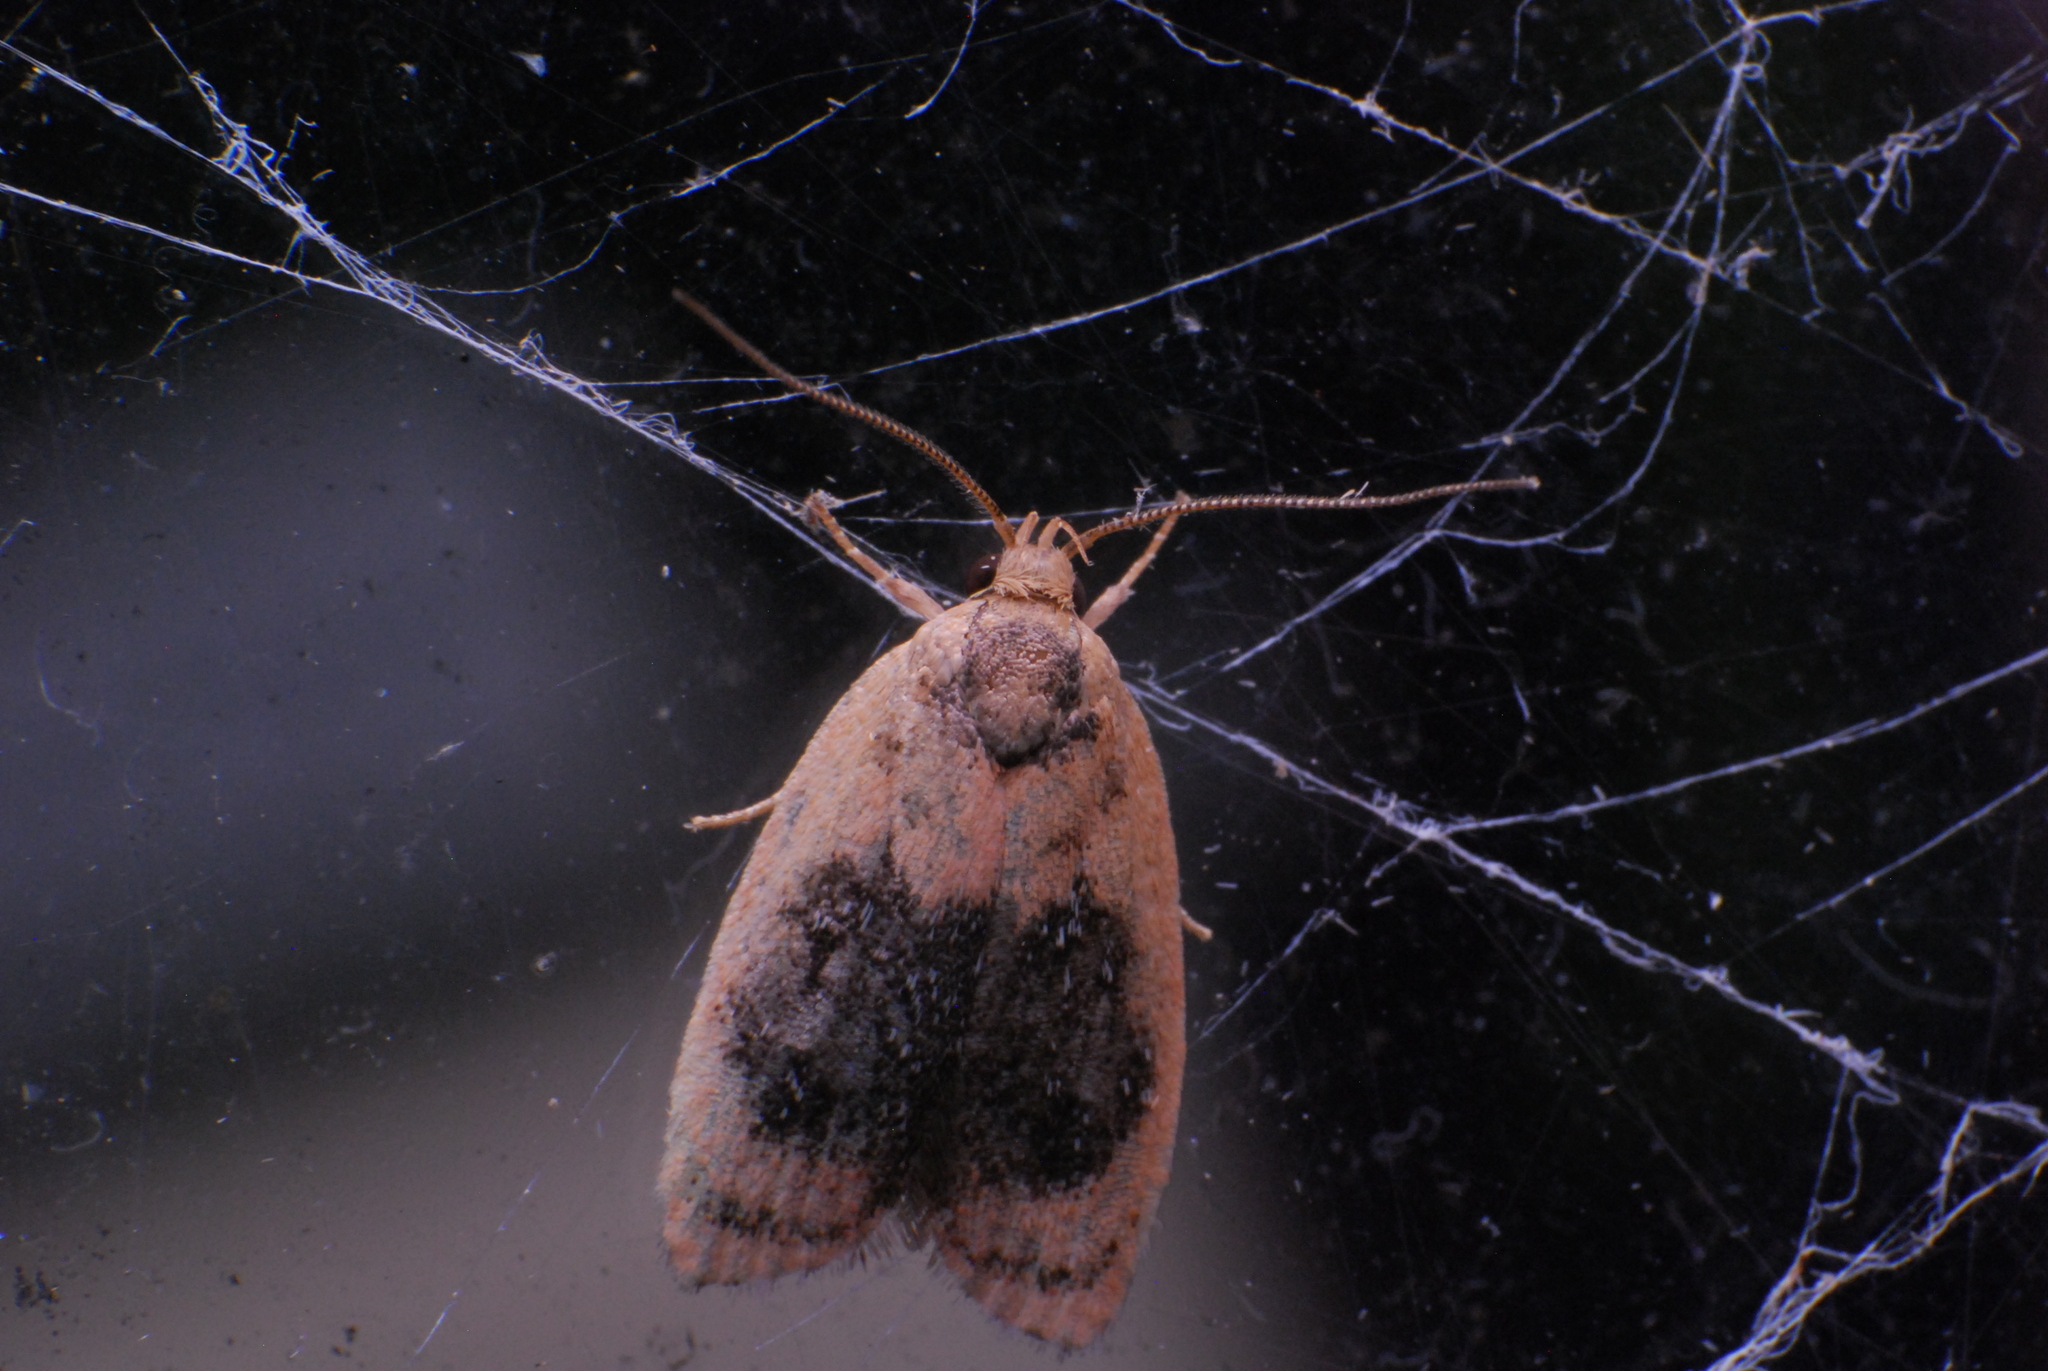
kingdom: Animalia
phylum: Arthropoda
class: Insecta
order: Lepidoptera
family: Oecophoridae
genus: Garrha
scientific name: Garrha ocellifera
